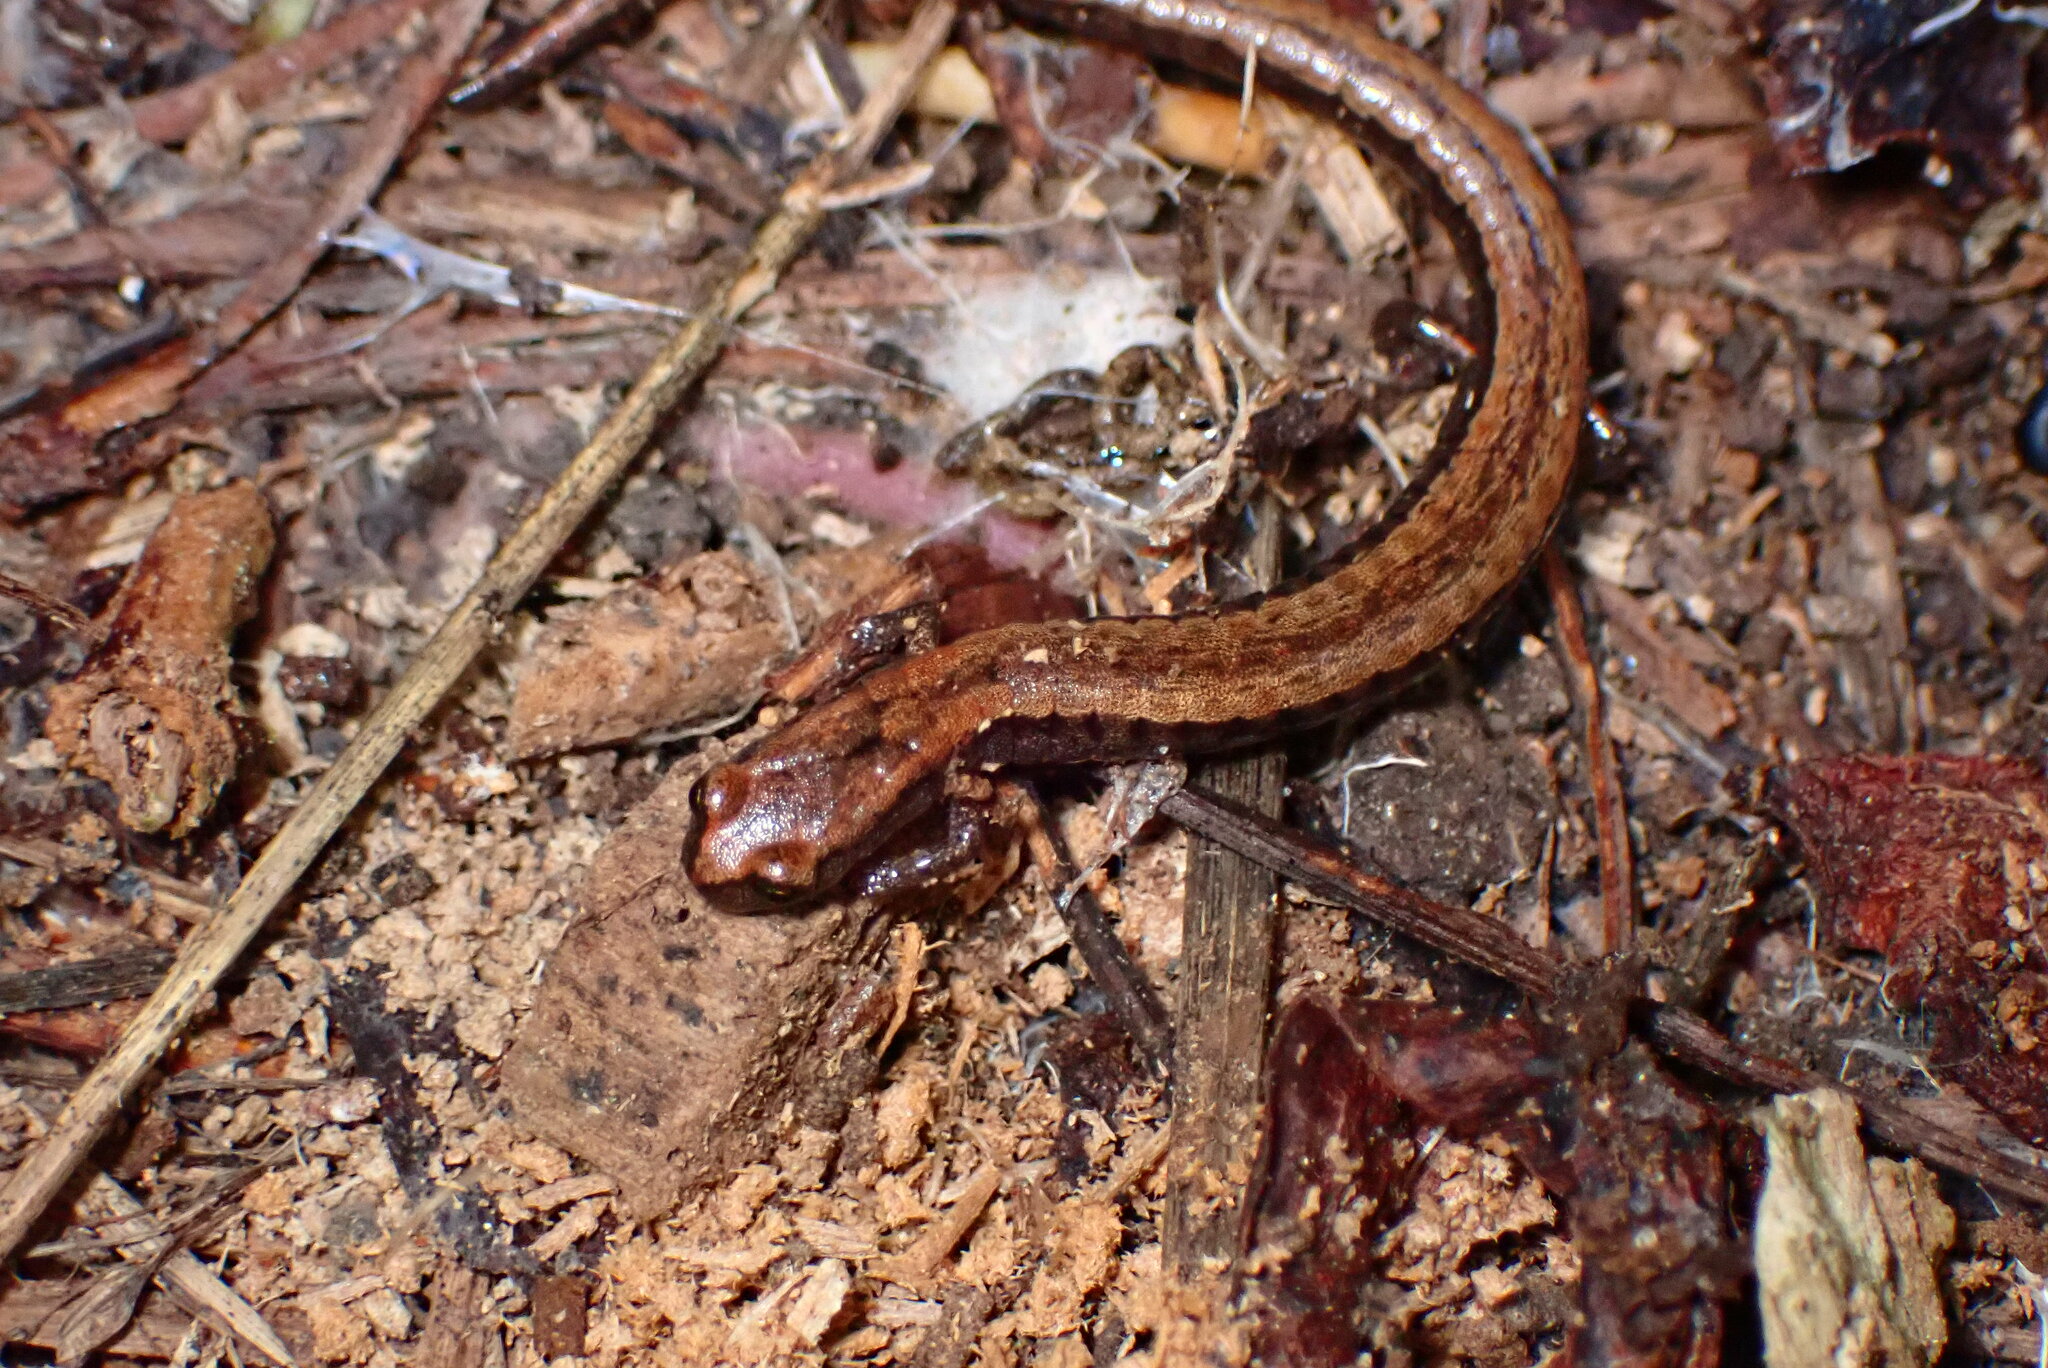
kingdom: Animalia
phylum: Chordata
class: Amphibia
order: Caudata
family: Plethodontidae
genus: Batrachoseps
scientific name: Batrachoseps attenuatus
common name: California slender salamander
